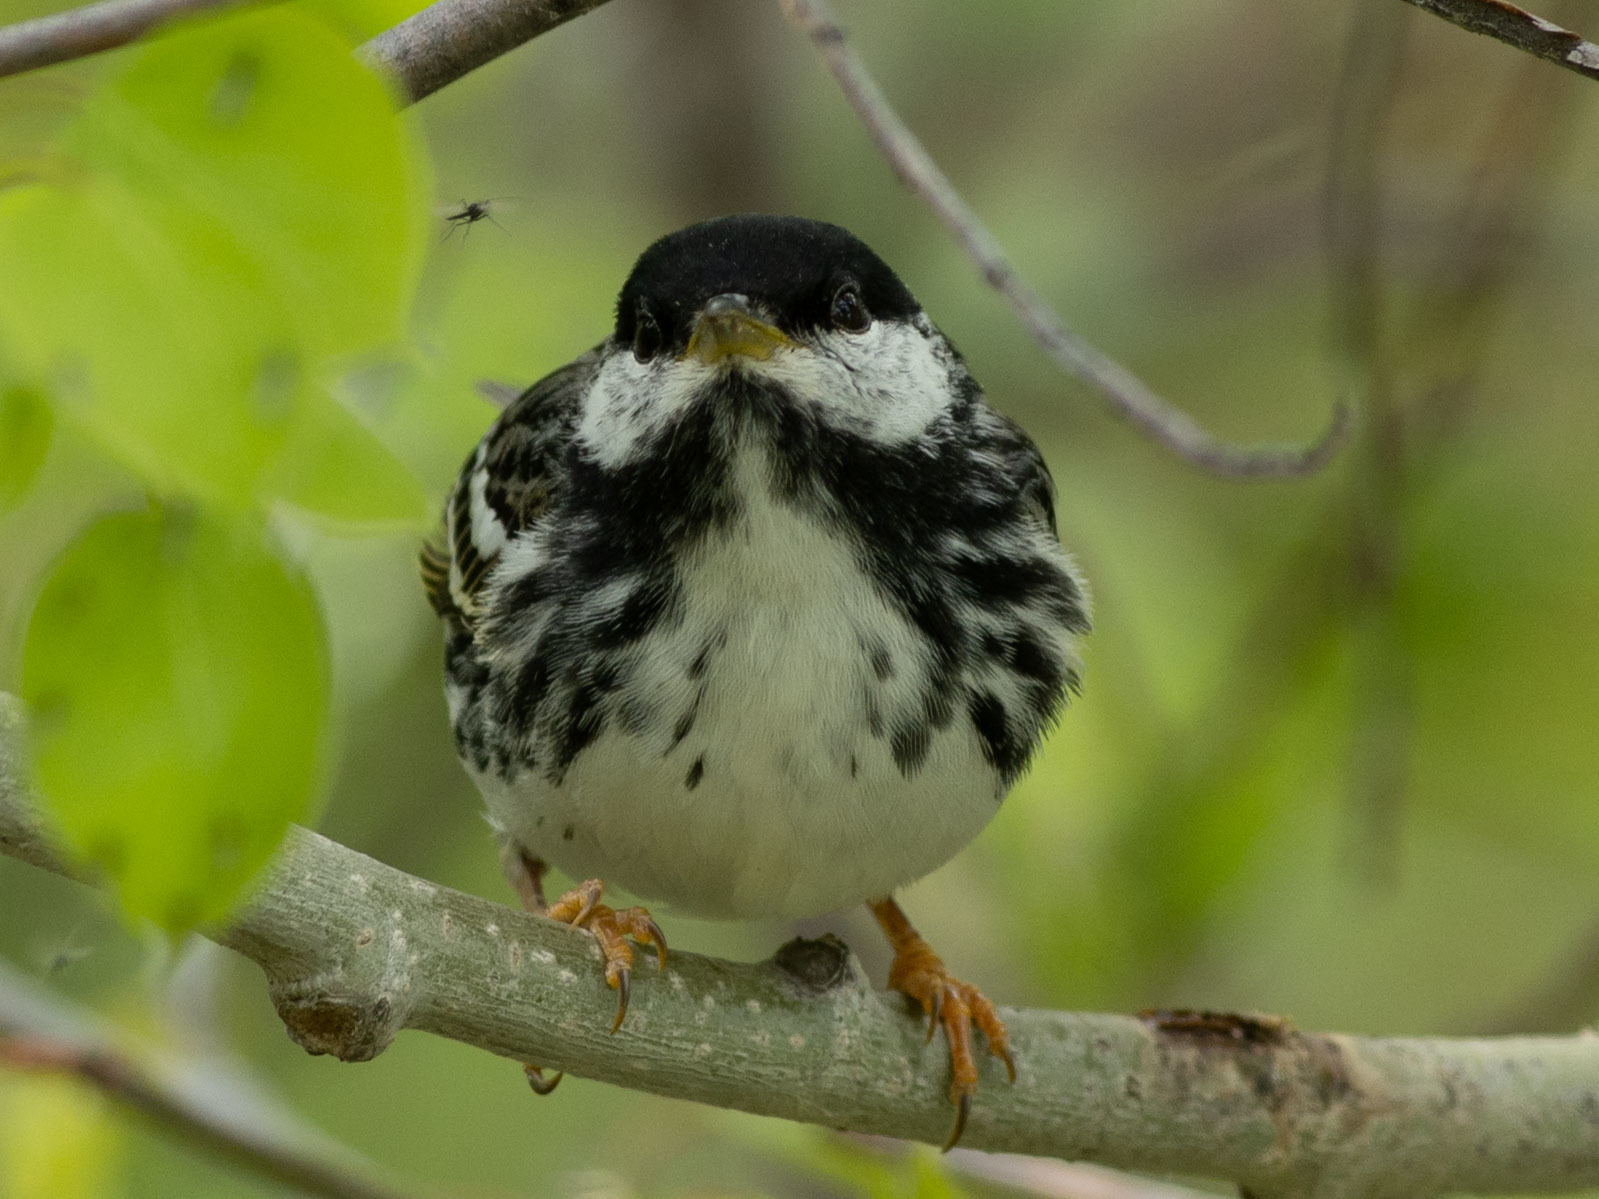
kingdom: Animalia
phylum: Chordata
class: Aves
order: Passeriformes
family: Parulidae
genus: Setophaga
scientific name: Setophaga striata
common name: Blackpoll warbler
